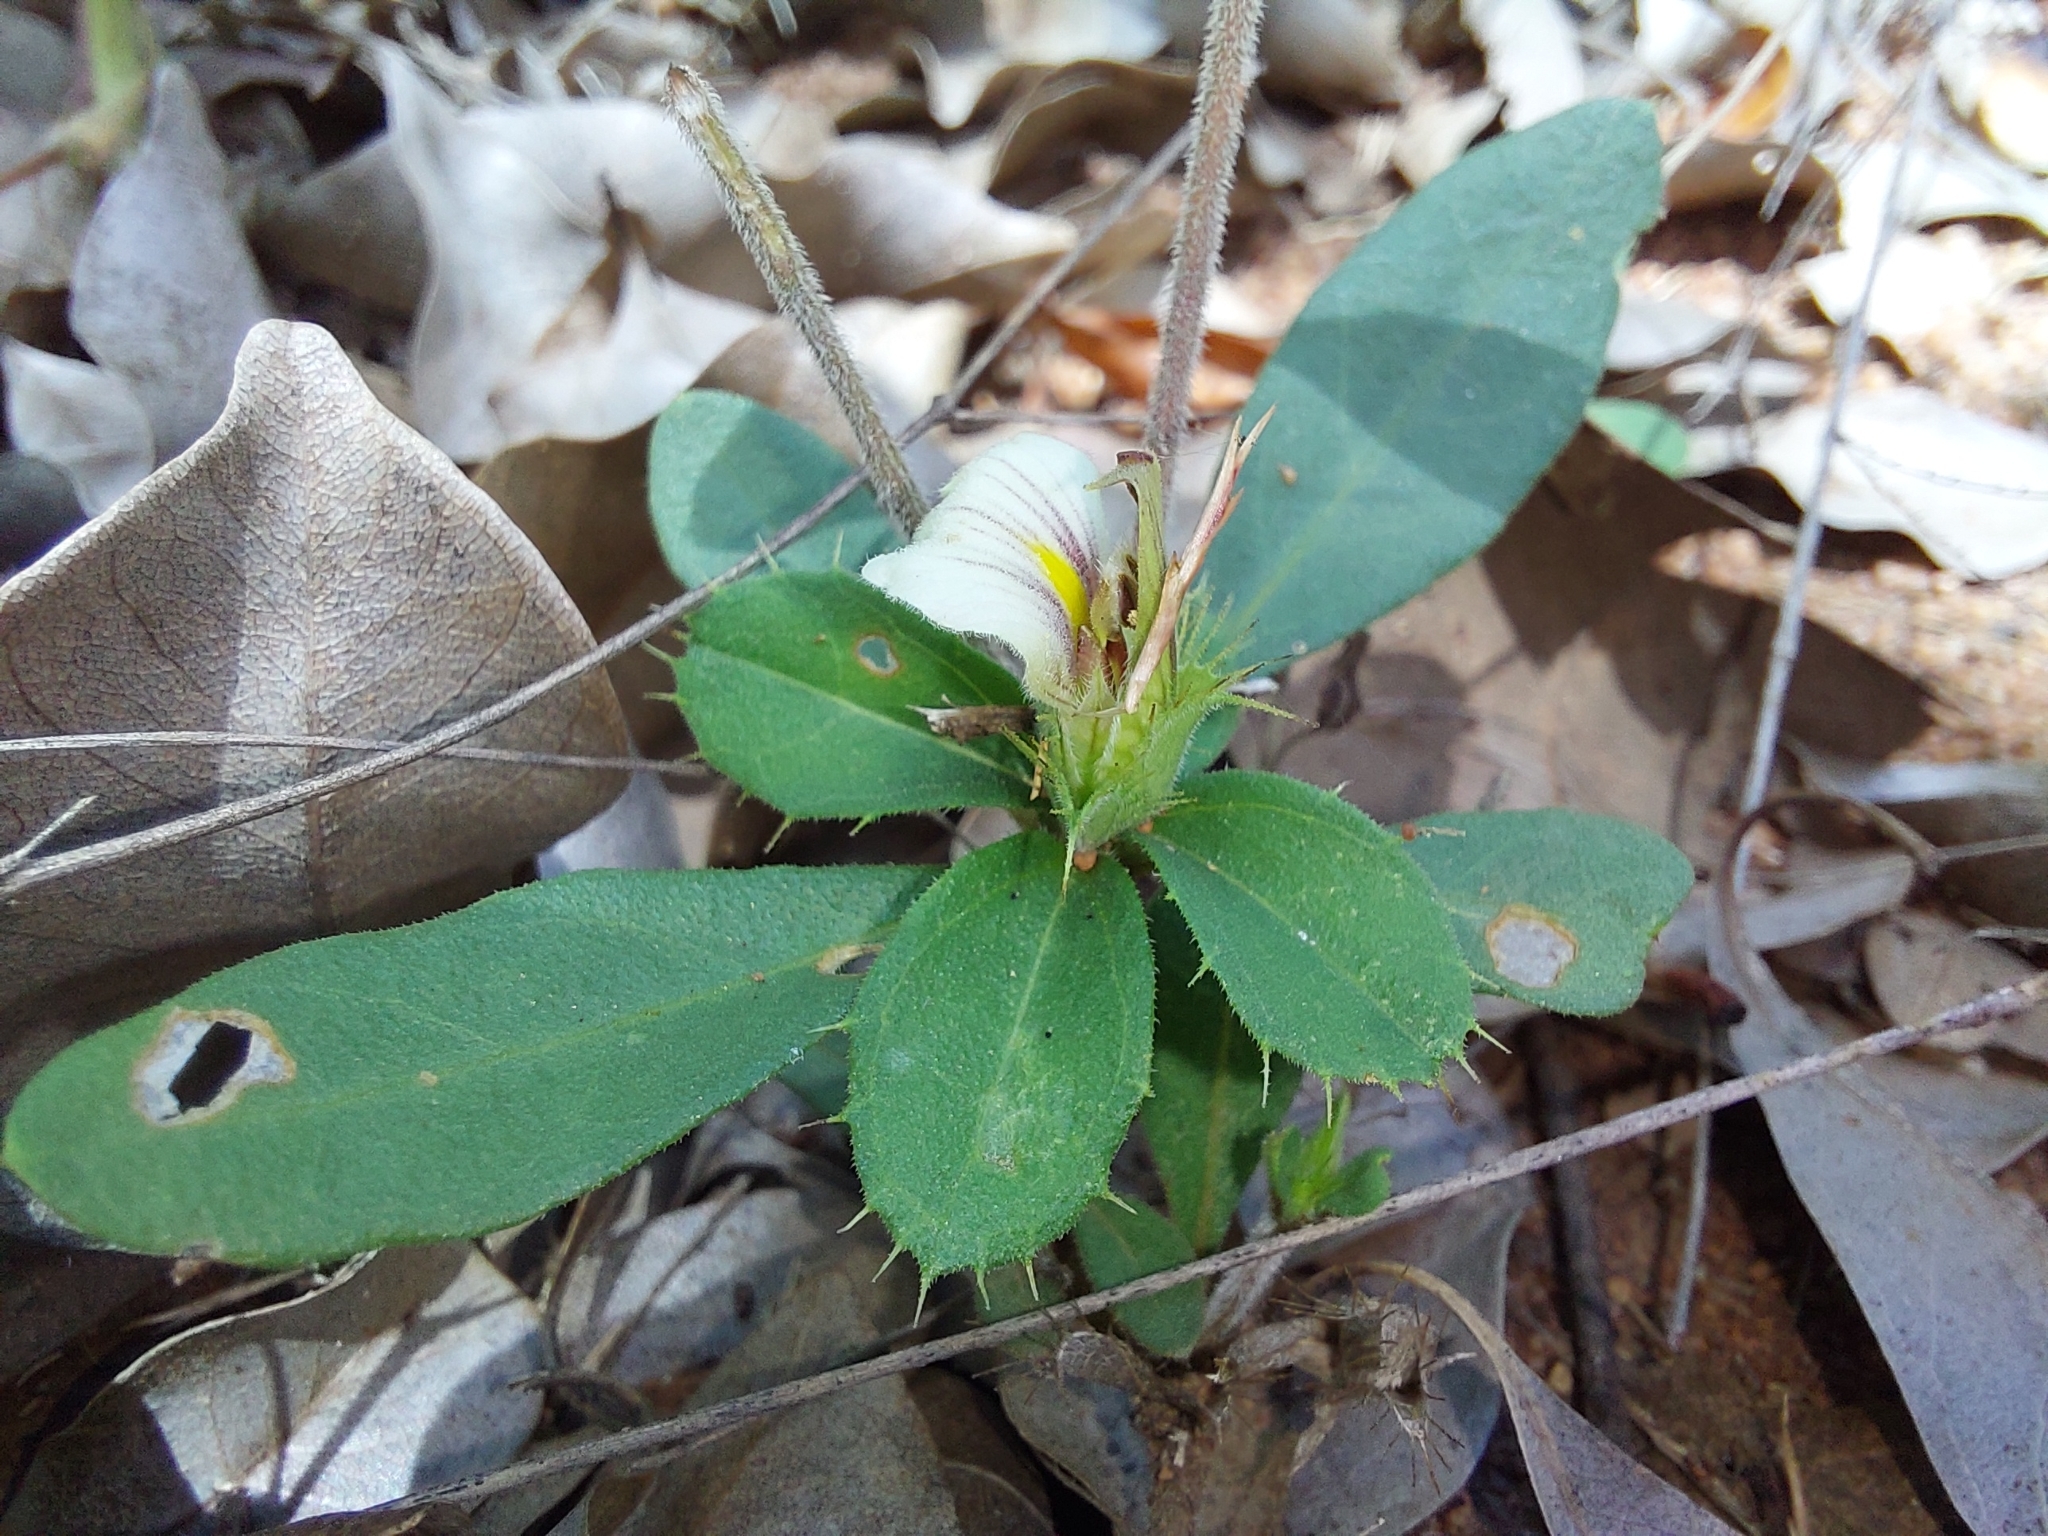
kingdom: Plantae
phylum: Tracheophyta
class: Magnoliopsida
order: Lamiales
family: Acanthaceae
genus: Blepharis
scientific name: Blepharis maderaspatensis
